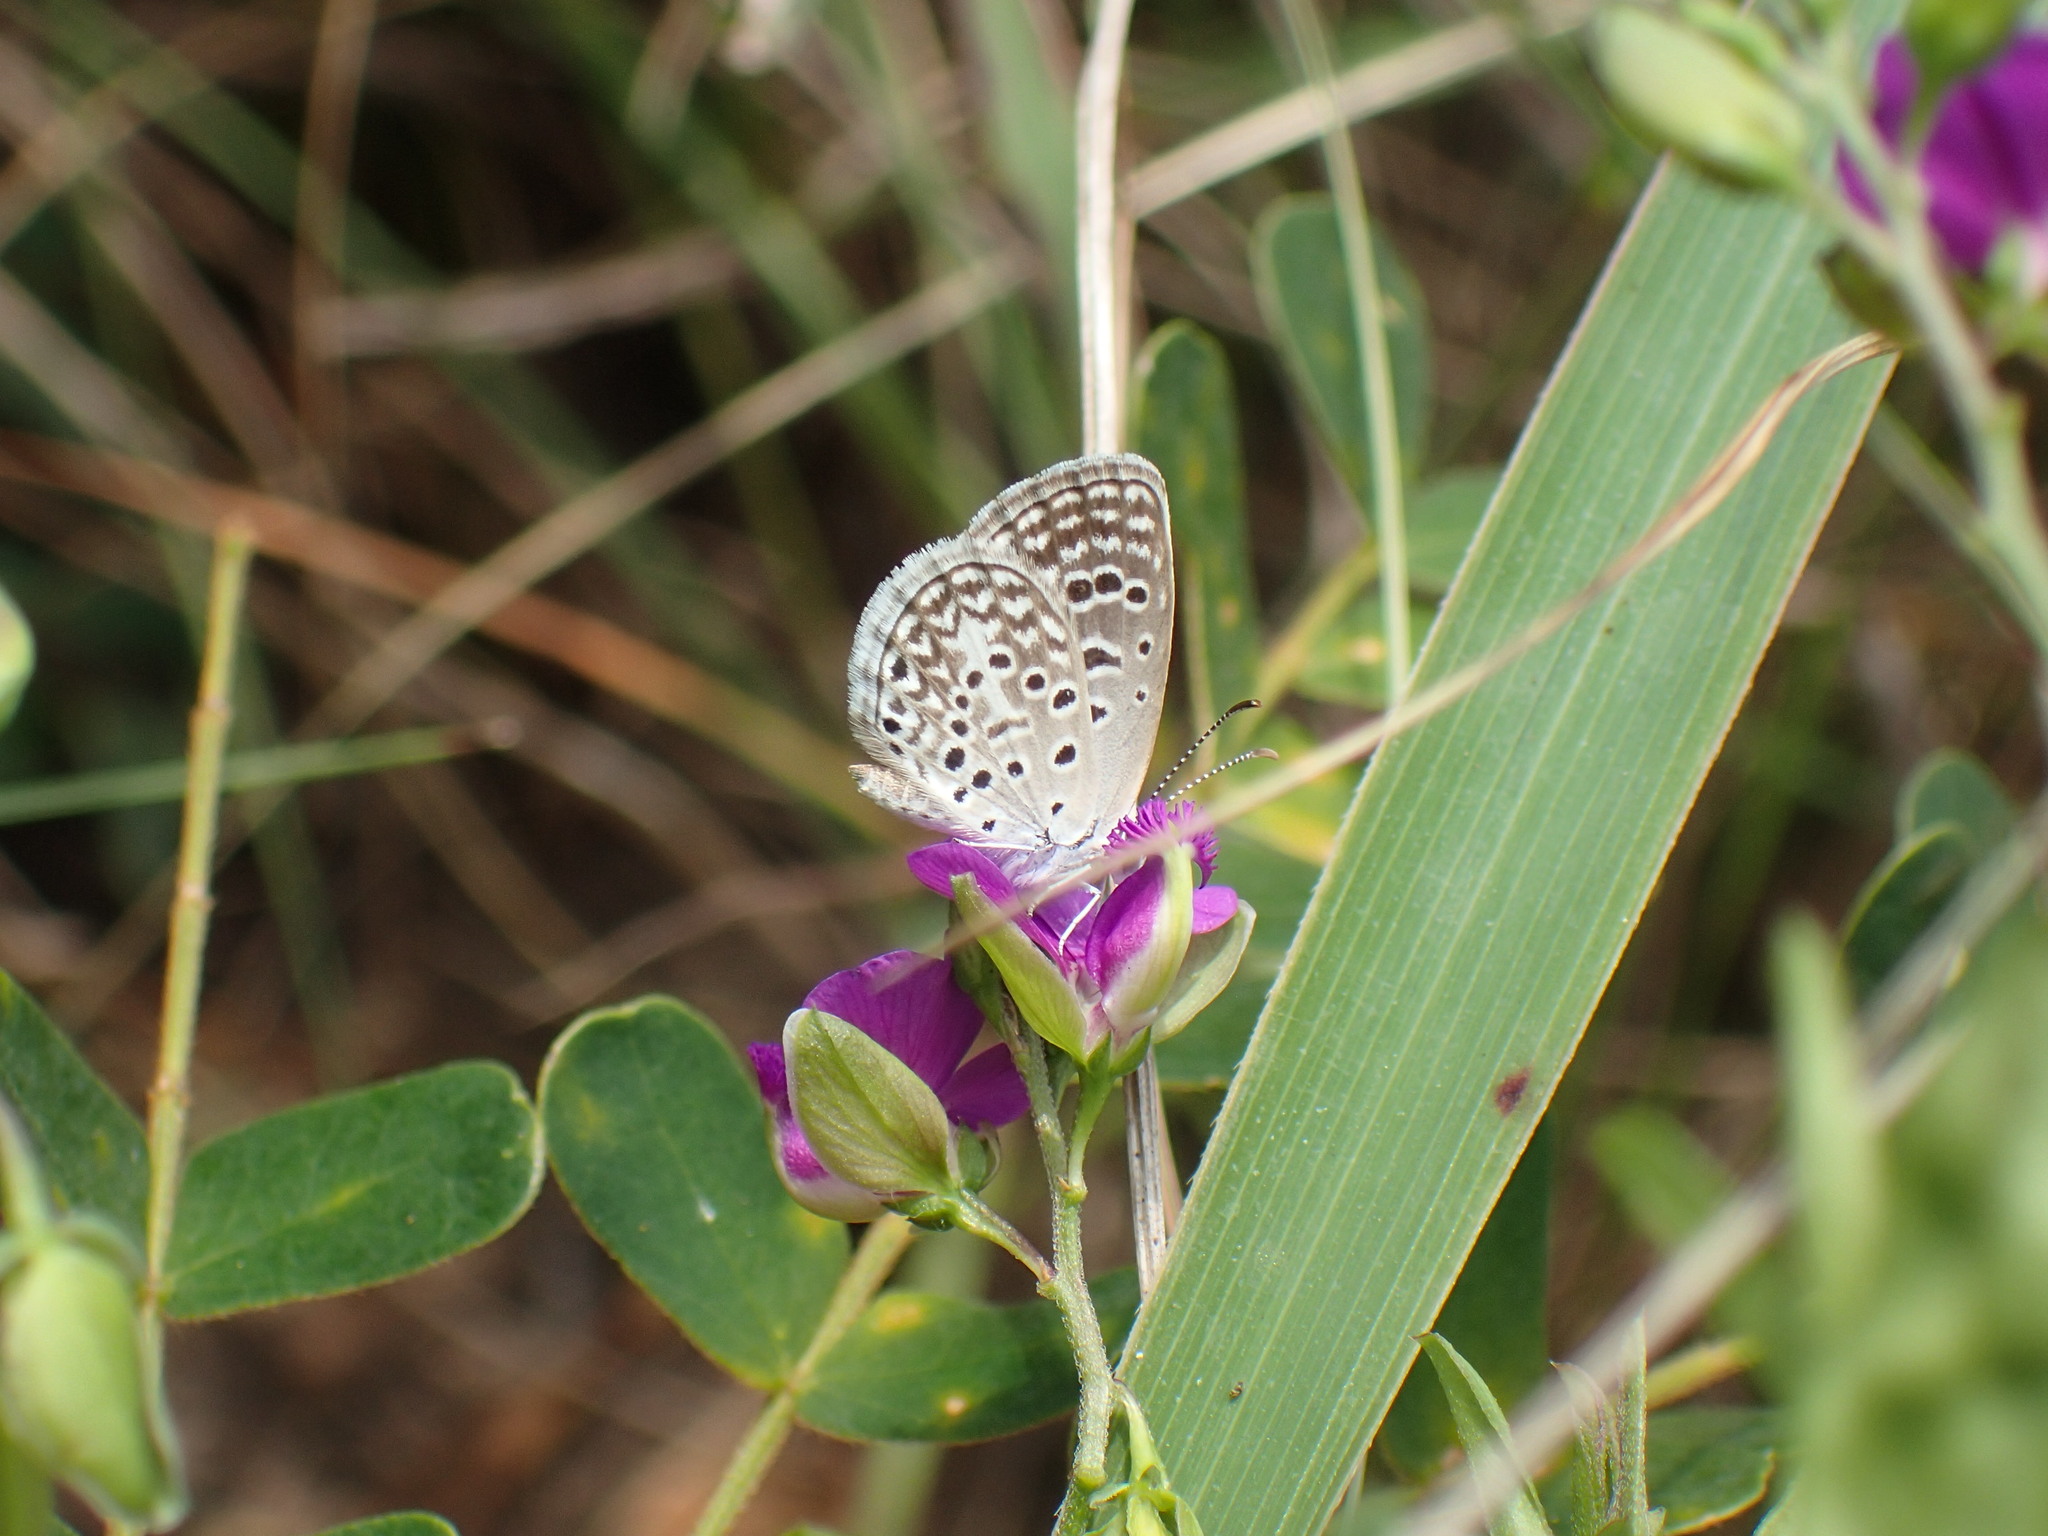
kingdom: Animalia
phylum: Arthropoda
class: Insecta
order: Lepidoptera
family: Lycaenidae
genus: Actizera
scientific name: Actizera lucida
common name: Rayed blue
